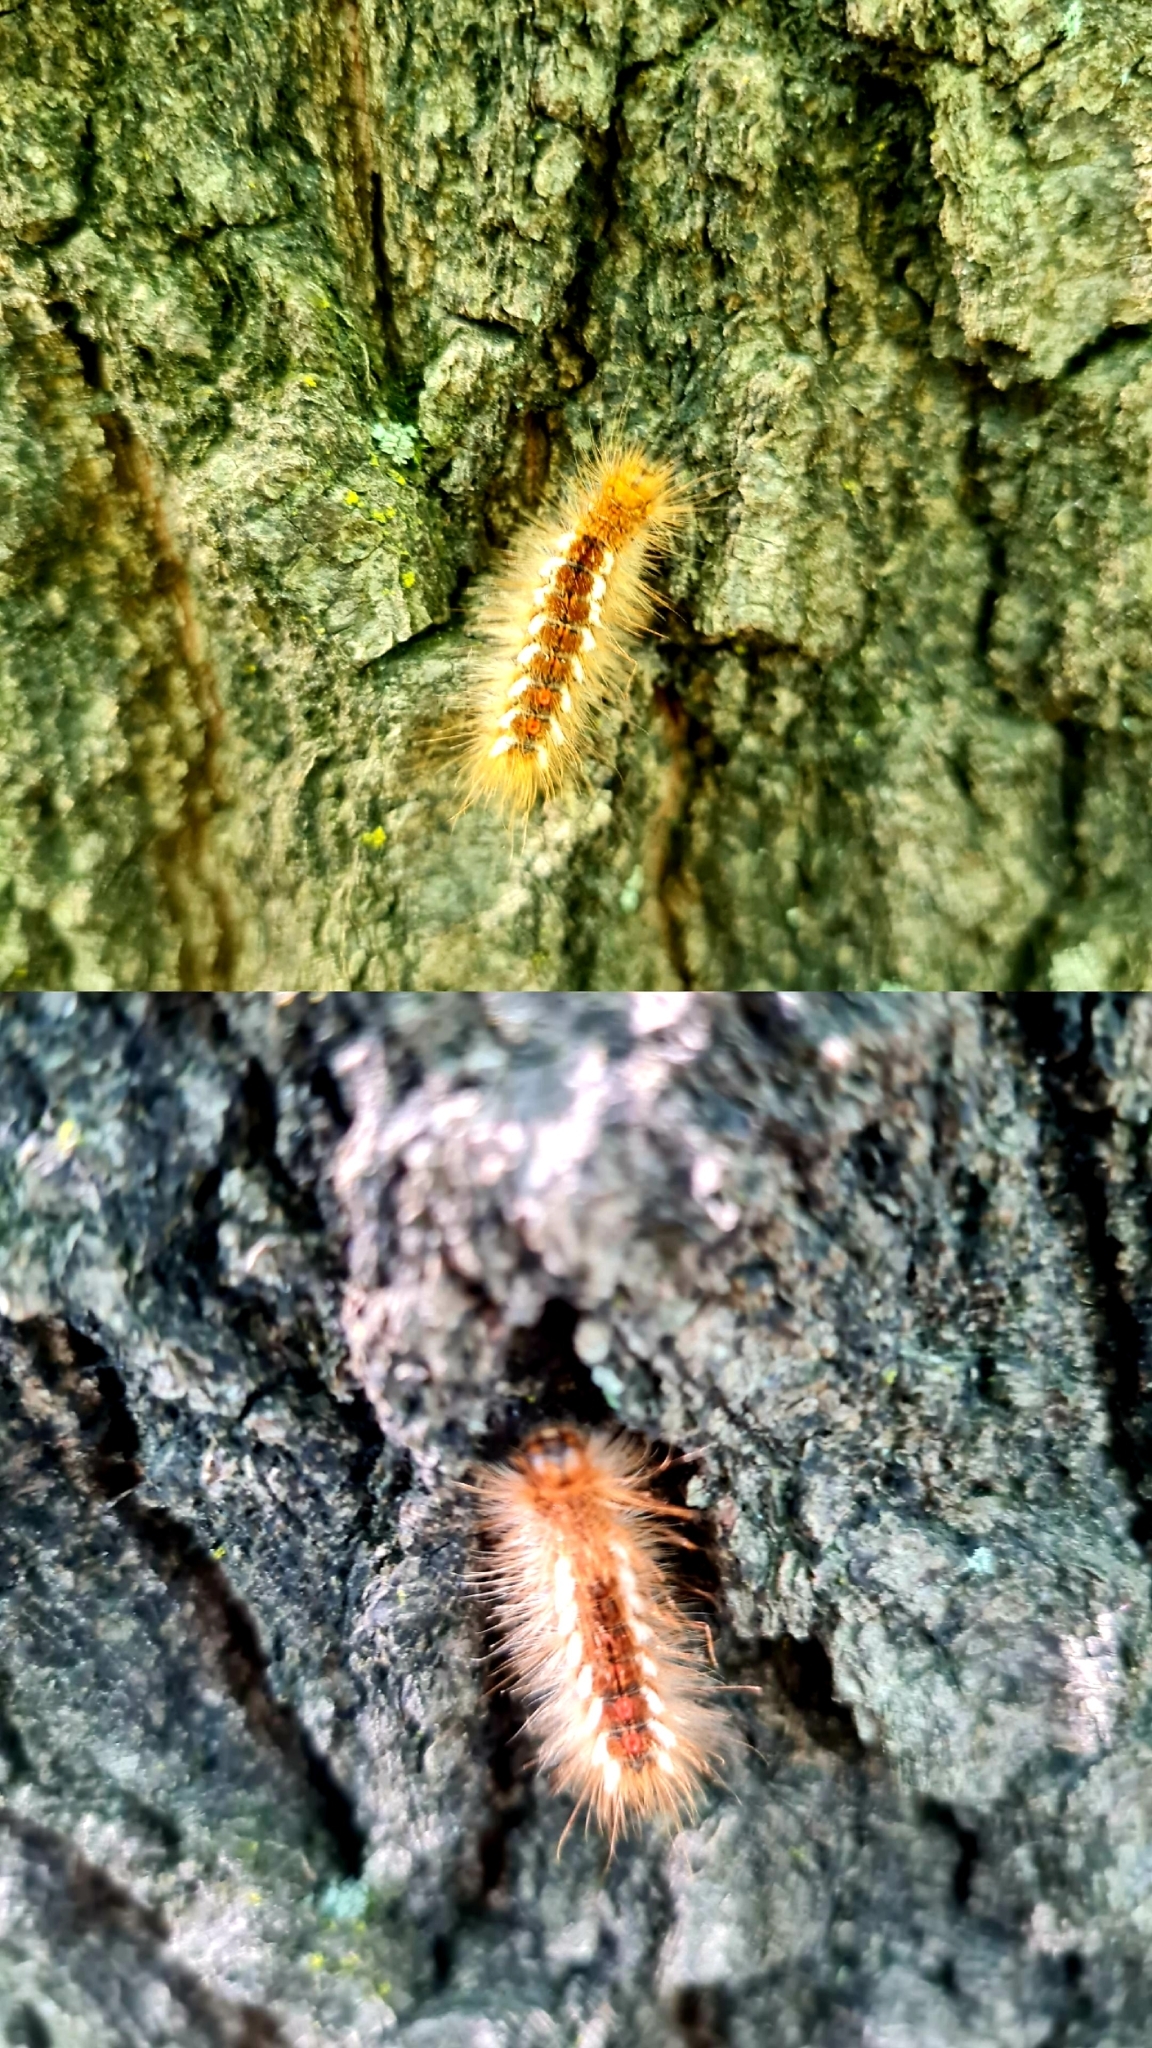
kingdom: Animalia
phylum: Arthropoda
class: Insecta
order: Lepidoptera
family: Erebidae
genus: Euproctis
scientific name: Euproctis chrysorrhoea
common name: Brown-tail
